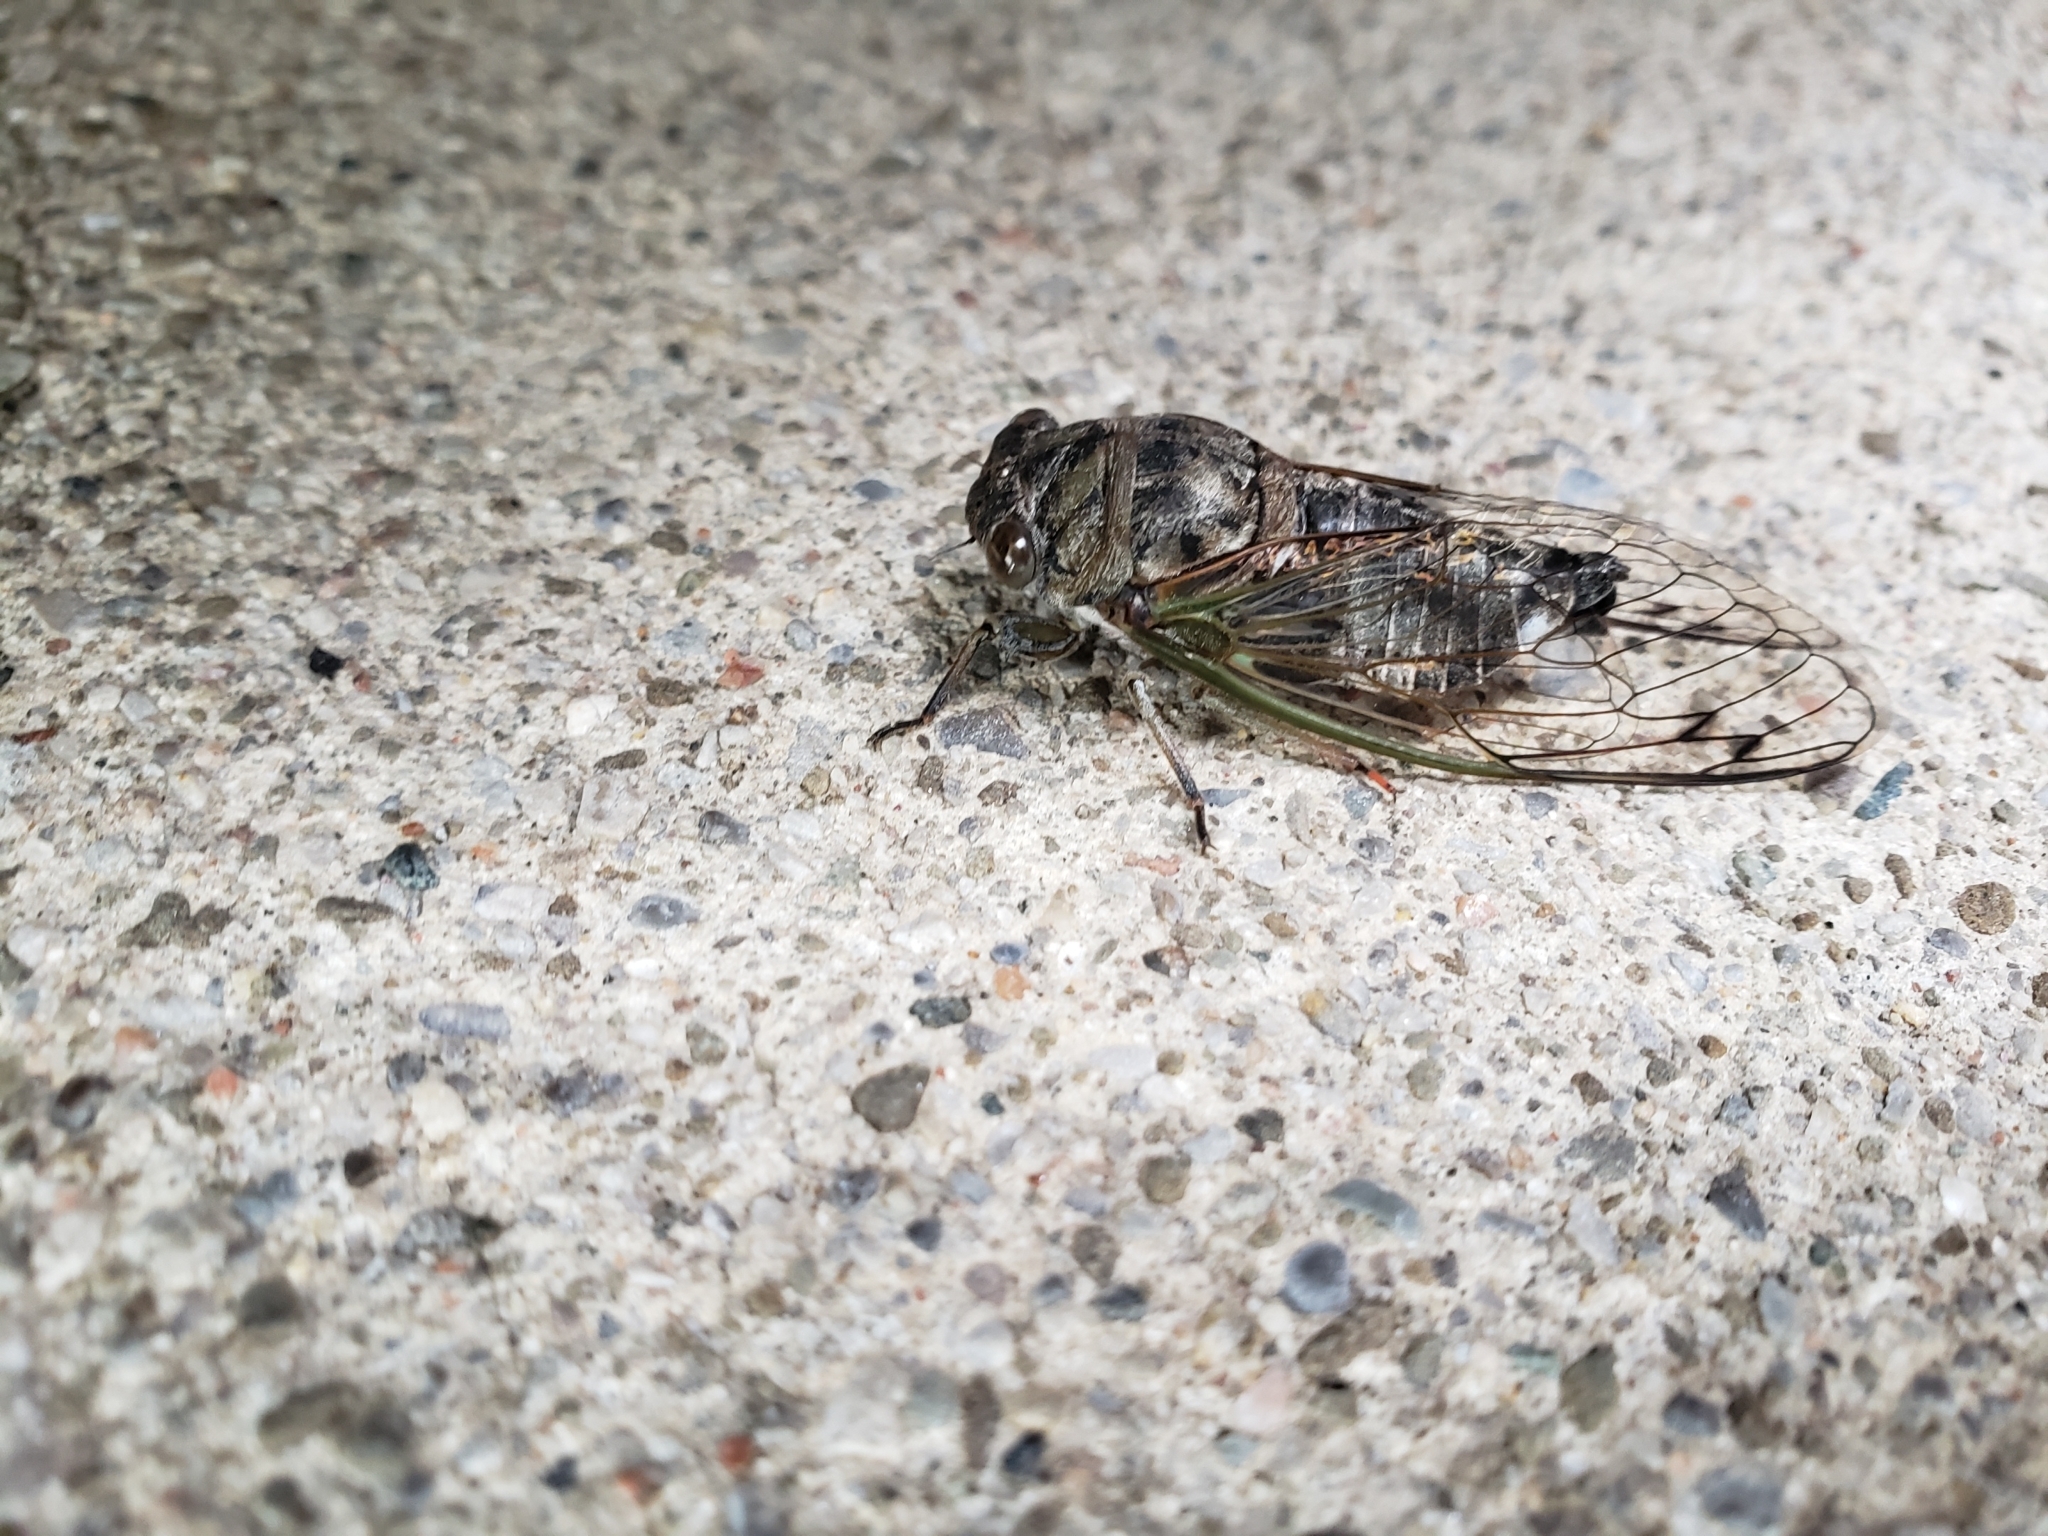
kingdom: Animalia
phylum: Arthropoda
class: Insecta
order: Hemiptera
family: Cicadidae
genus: Neotibicen
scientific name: Neotibicen canicularis
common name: God-day cicada
